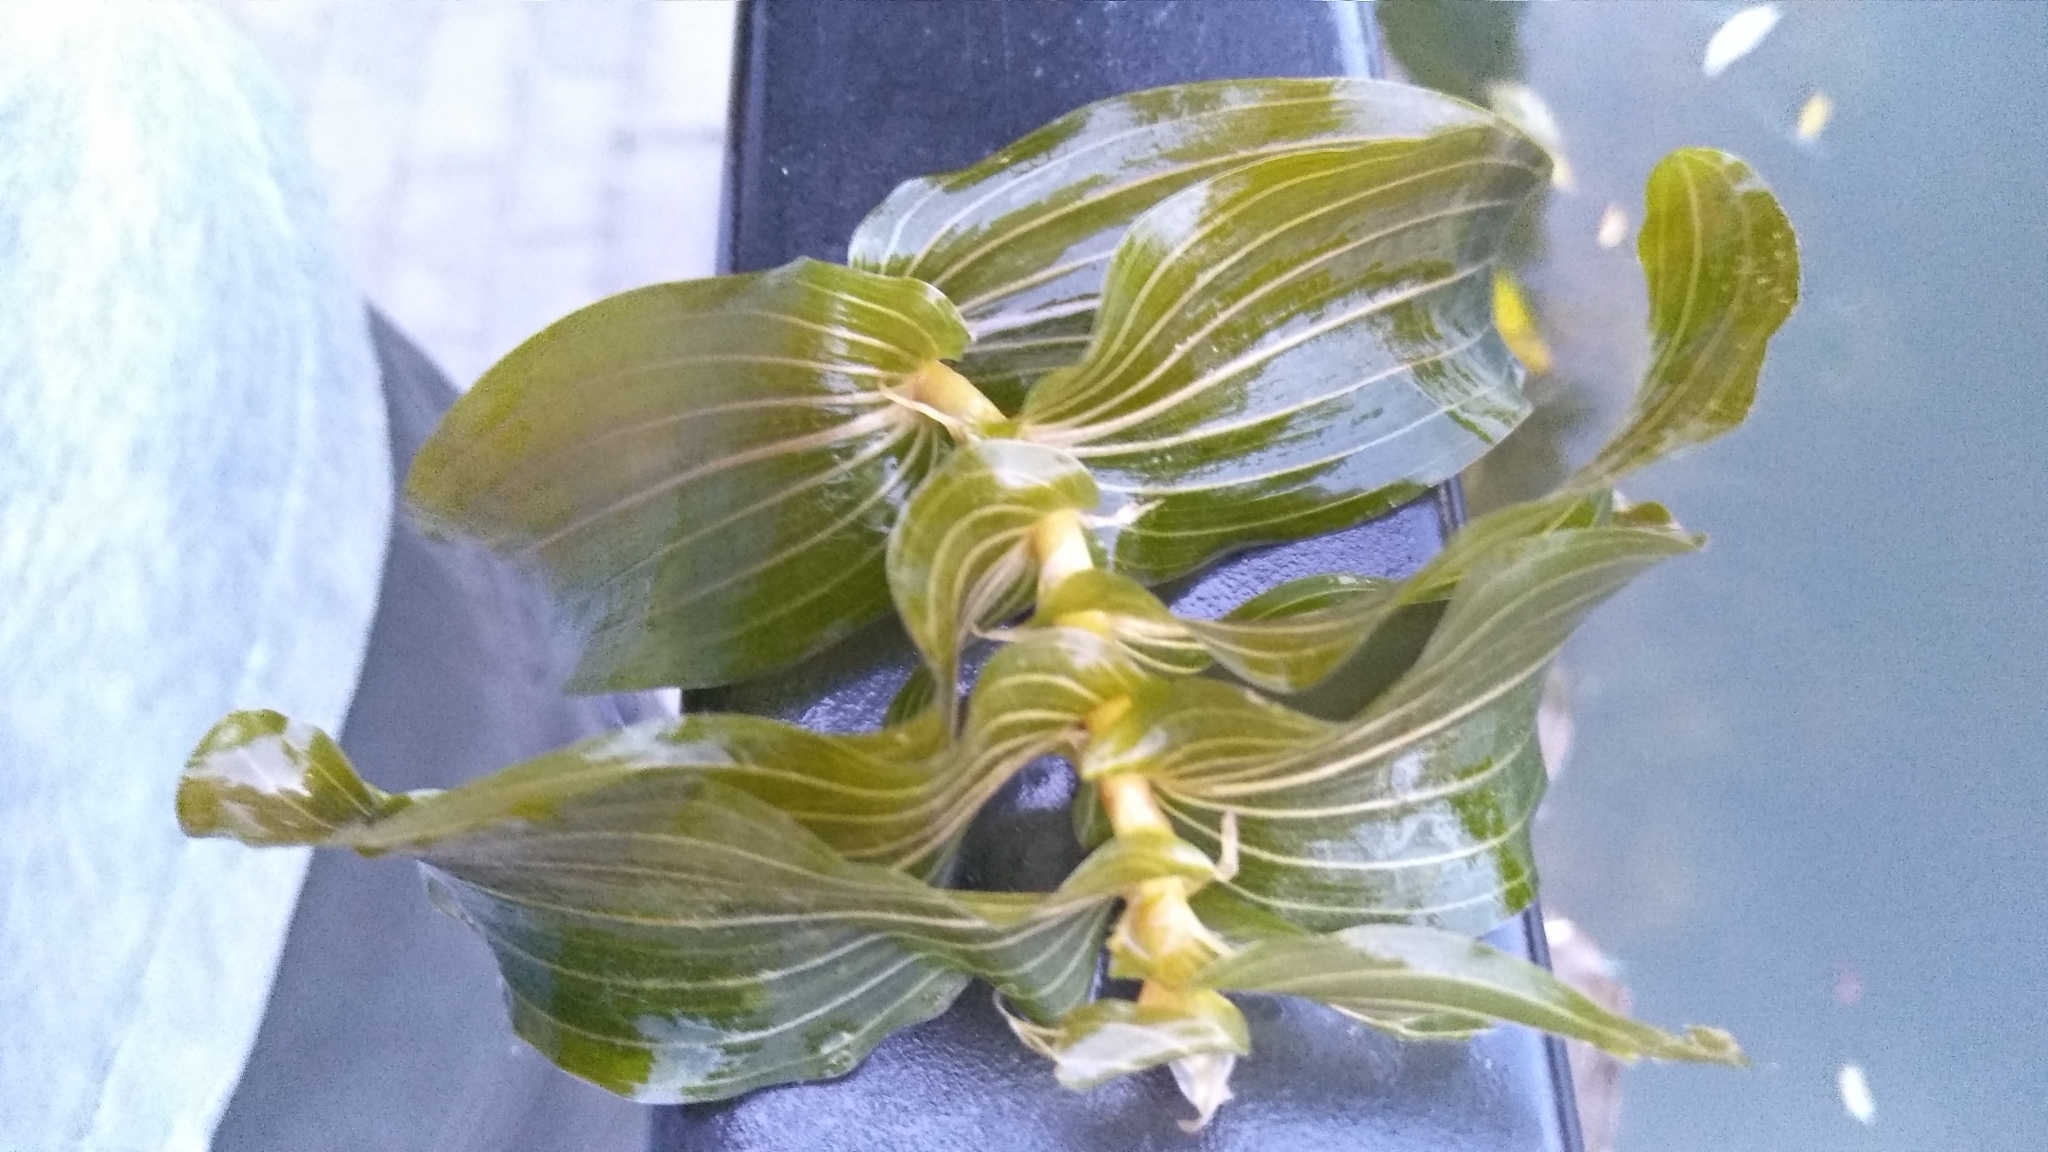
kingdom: Plantae
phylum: Tracheophyta
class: Liliopsida
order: Alismatales
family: Potamogetonaceae
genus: Potamogeton
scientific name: Potamogeton perfoliatus
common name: Perfoliate pondweed
